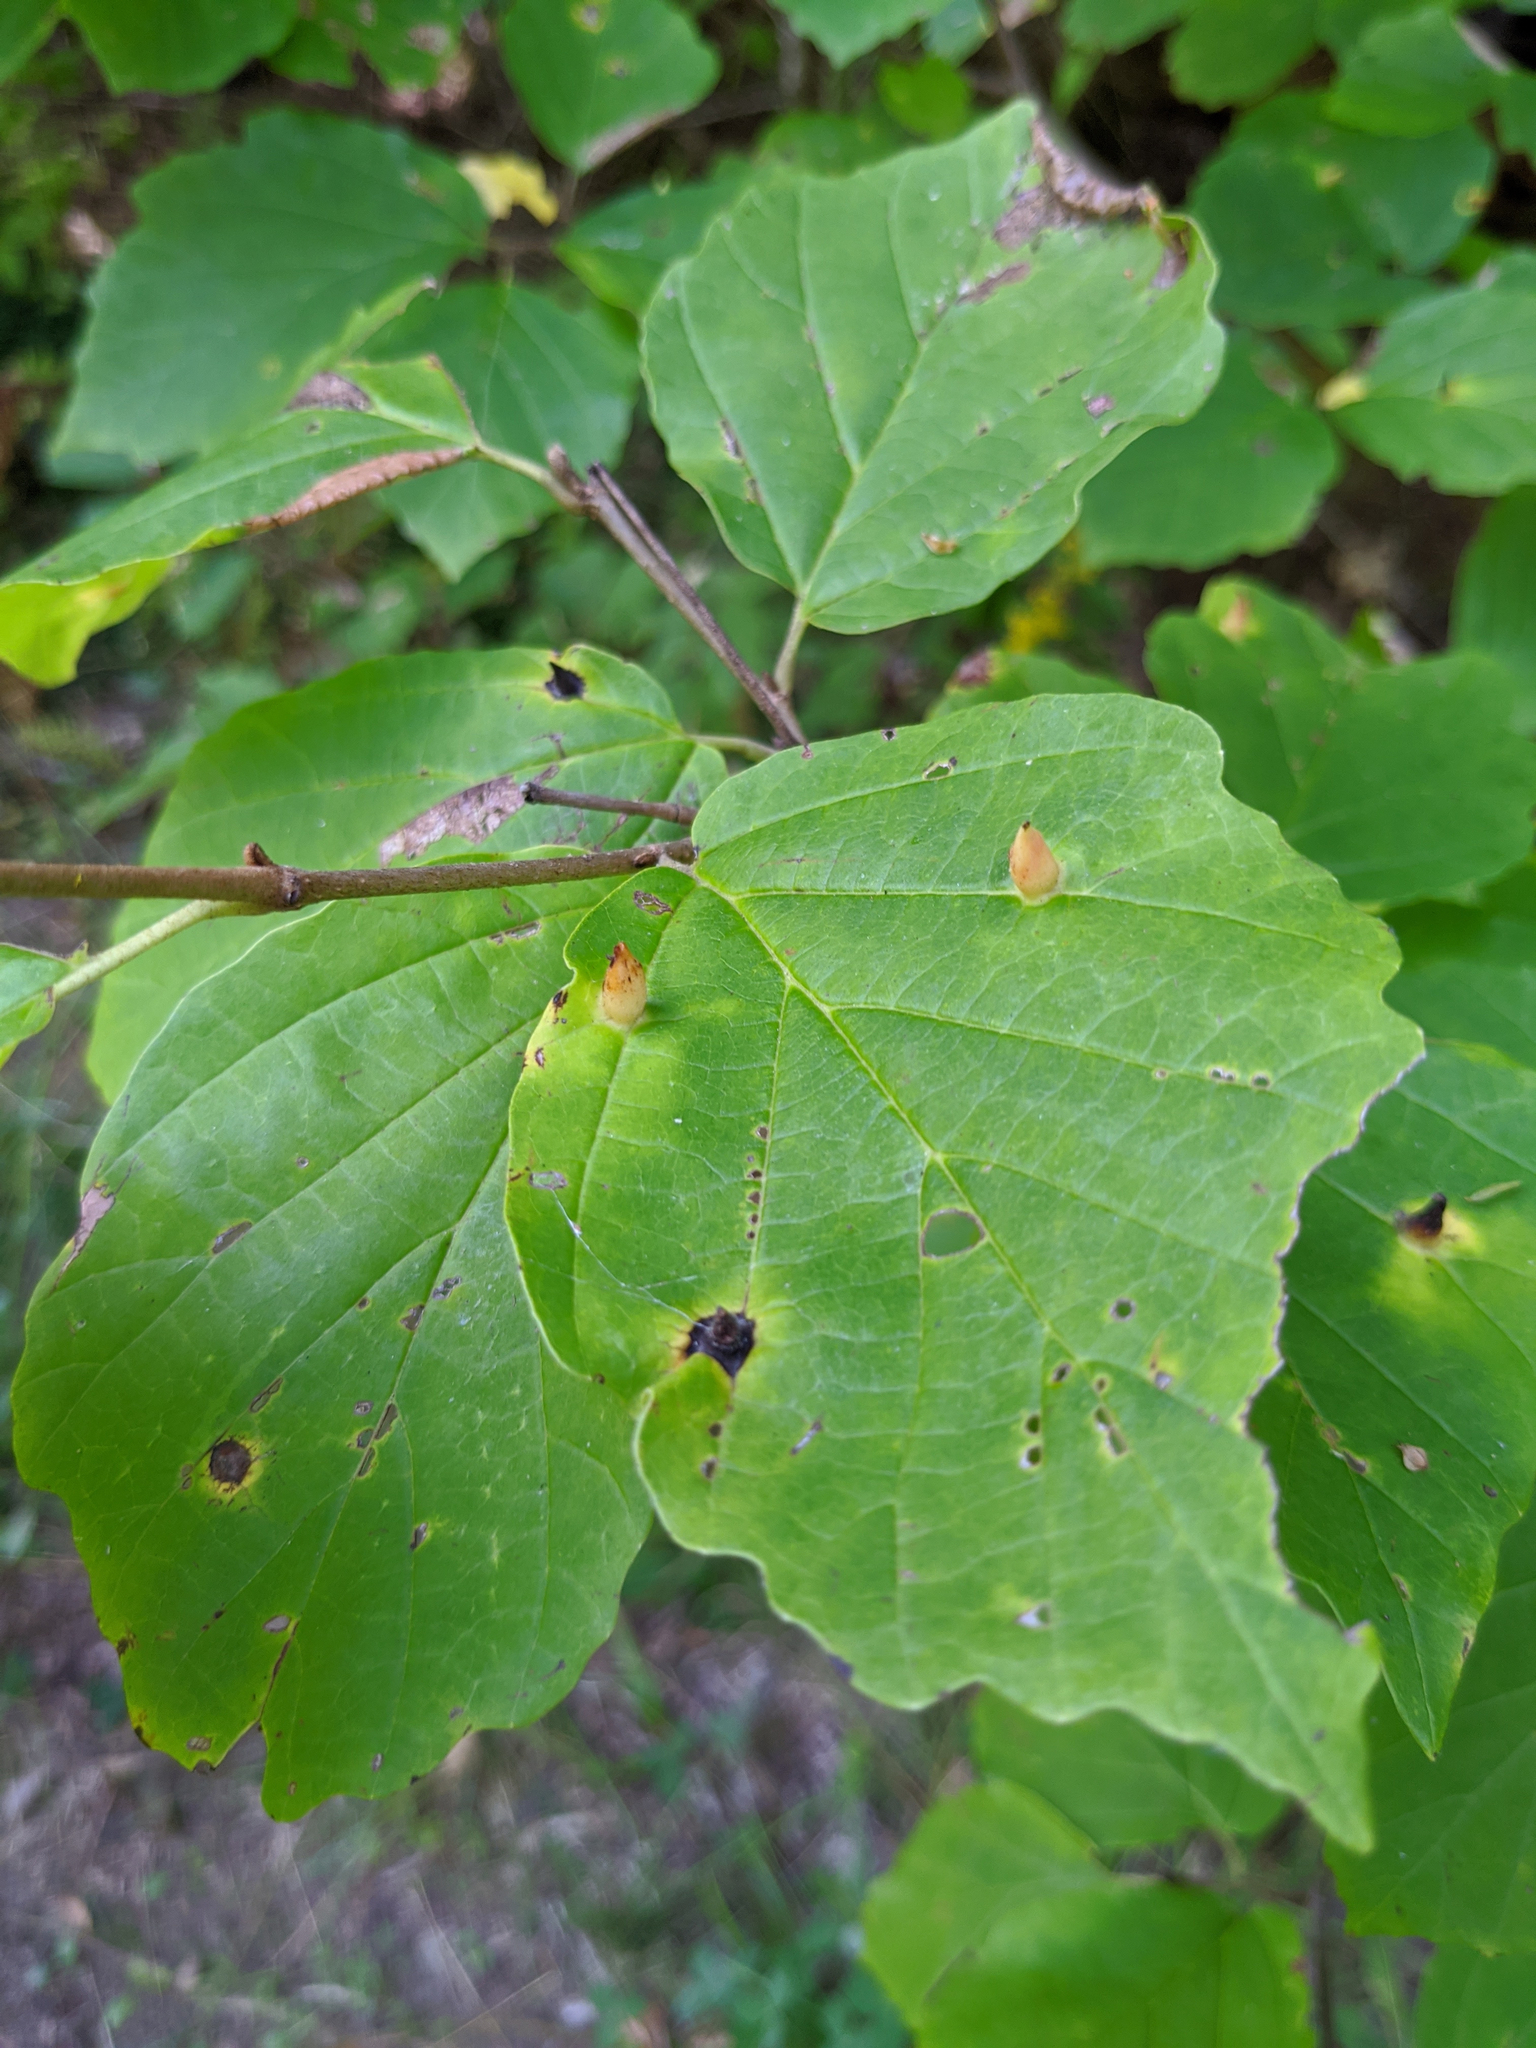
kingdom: Animalia
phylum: Arthropoda
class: Insecta
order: Hemiptera
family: Aphididae
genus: Hormaphis
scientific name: Hormaphis hamamelidis
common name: Witch-hazel cone gall aphid
